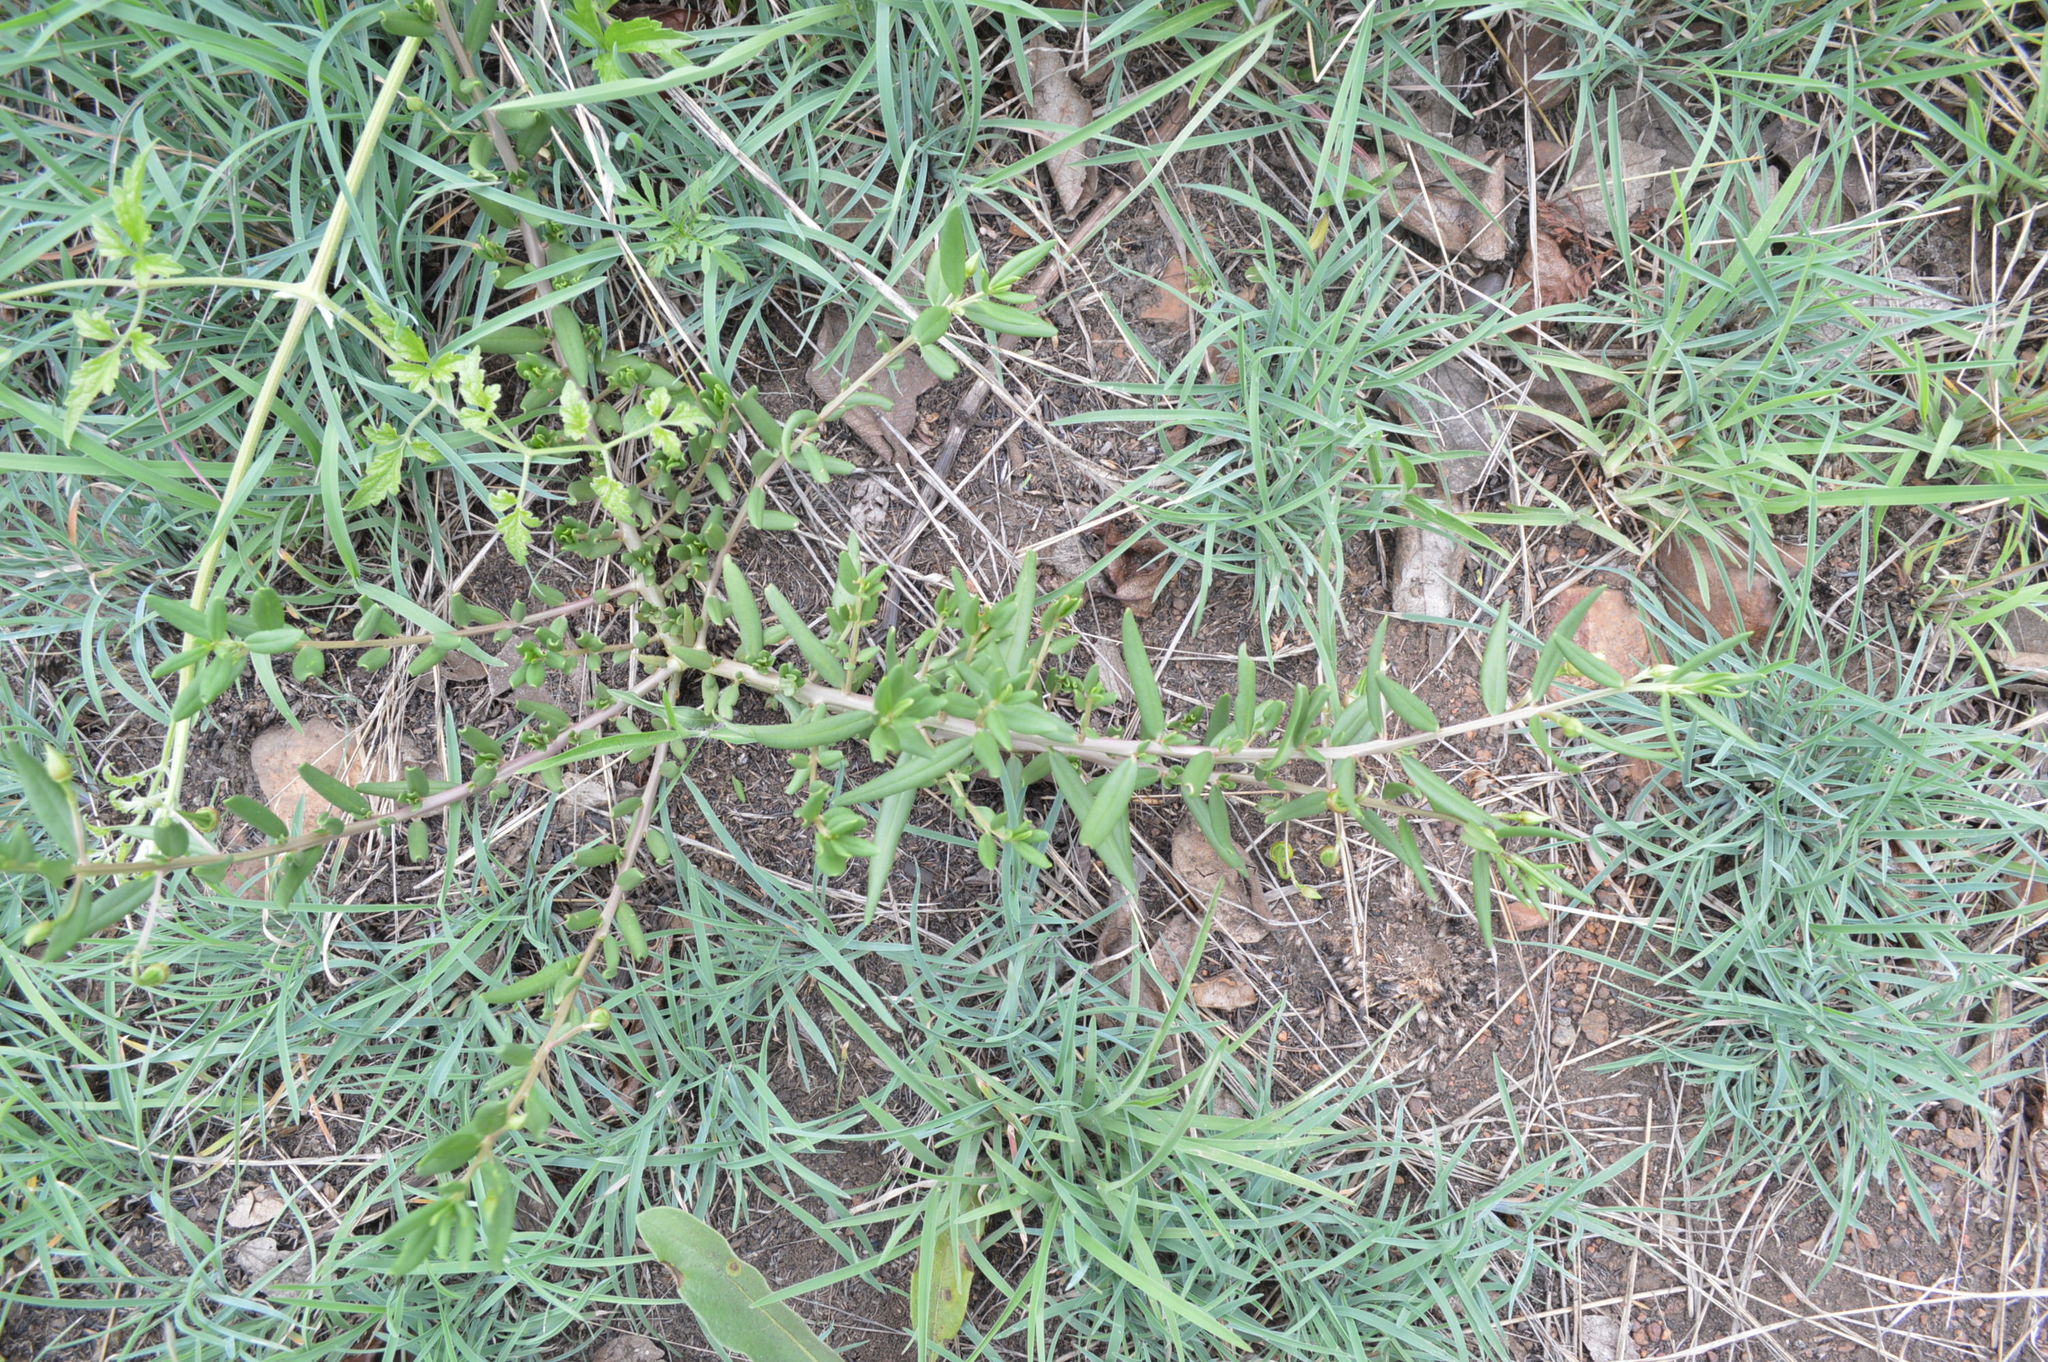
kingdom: Plantae
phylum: Tracheophyta
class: Magnoliopsida
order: Caryophyllales
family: Talinaceae
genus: Talinum
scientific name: Talinum caffrum
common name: Flameflower
